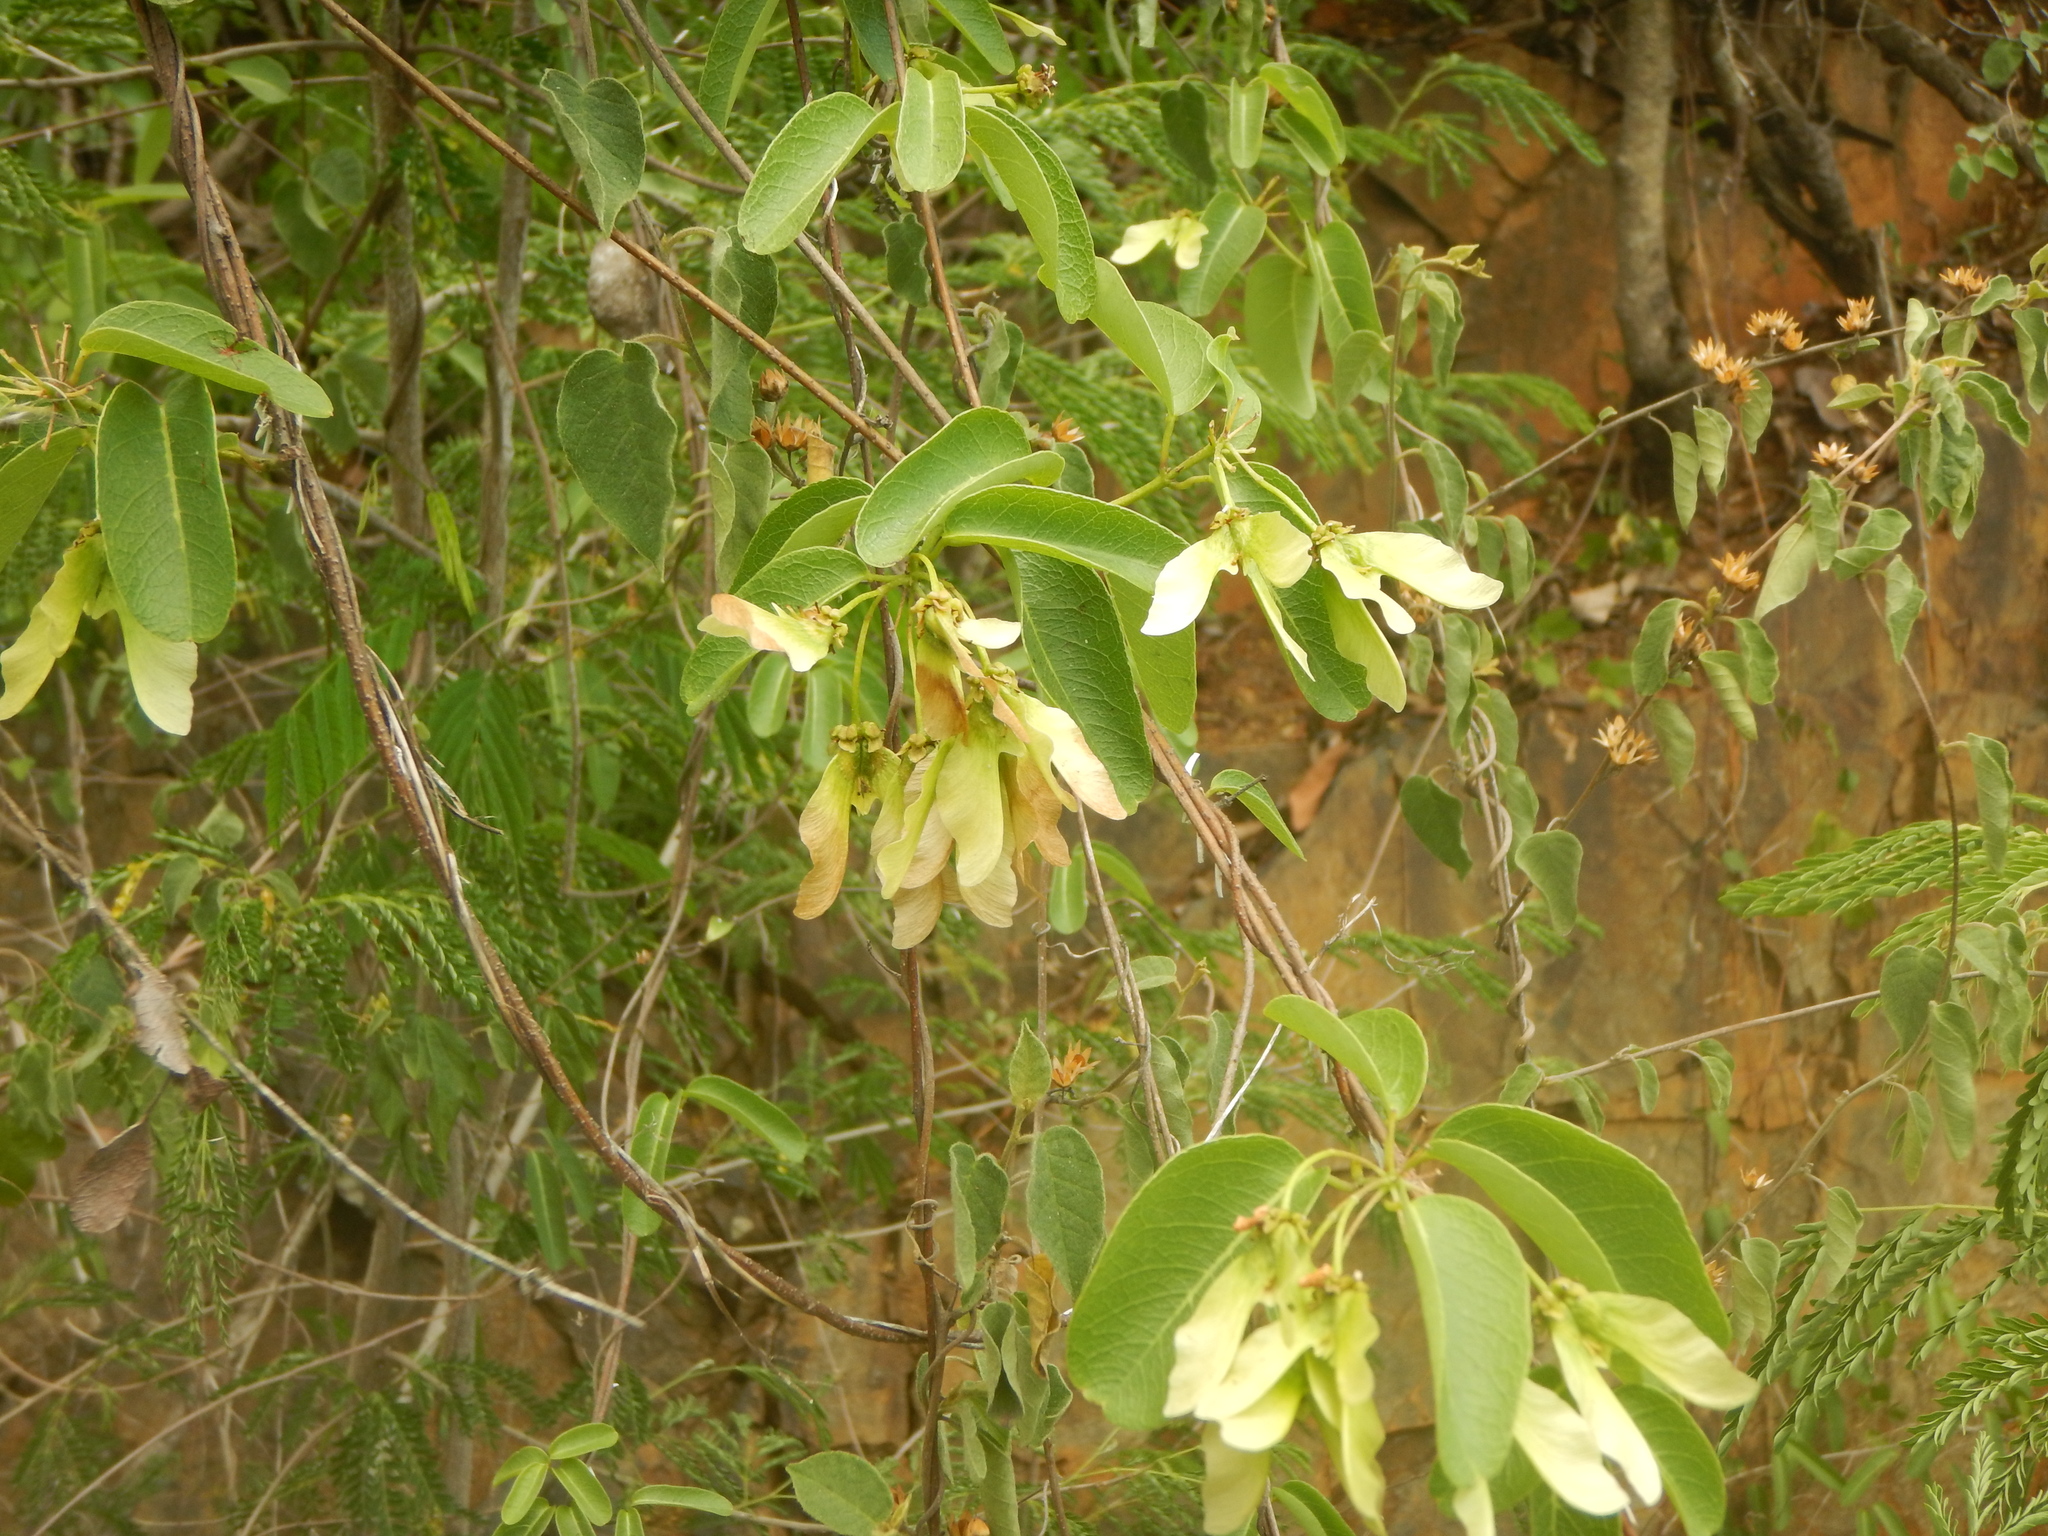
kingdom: Plantae
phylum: Tracheophyta
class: Magnoliopsida
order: Malpighiales
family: Malpighiaceae
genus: Stigmaphyllon
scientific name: Stigmaphyllon emarginatum
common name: Monarch amazonvine
